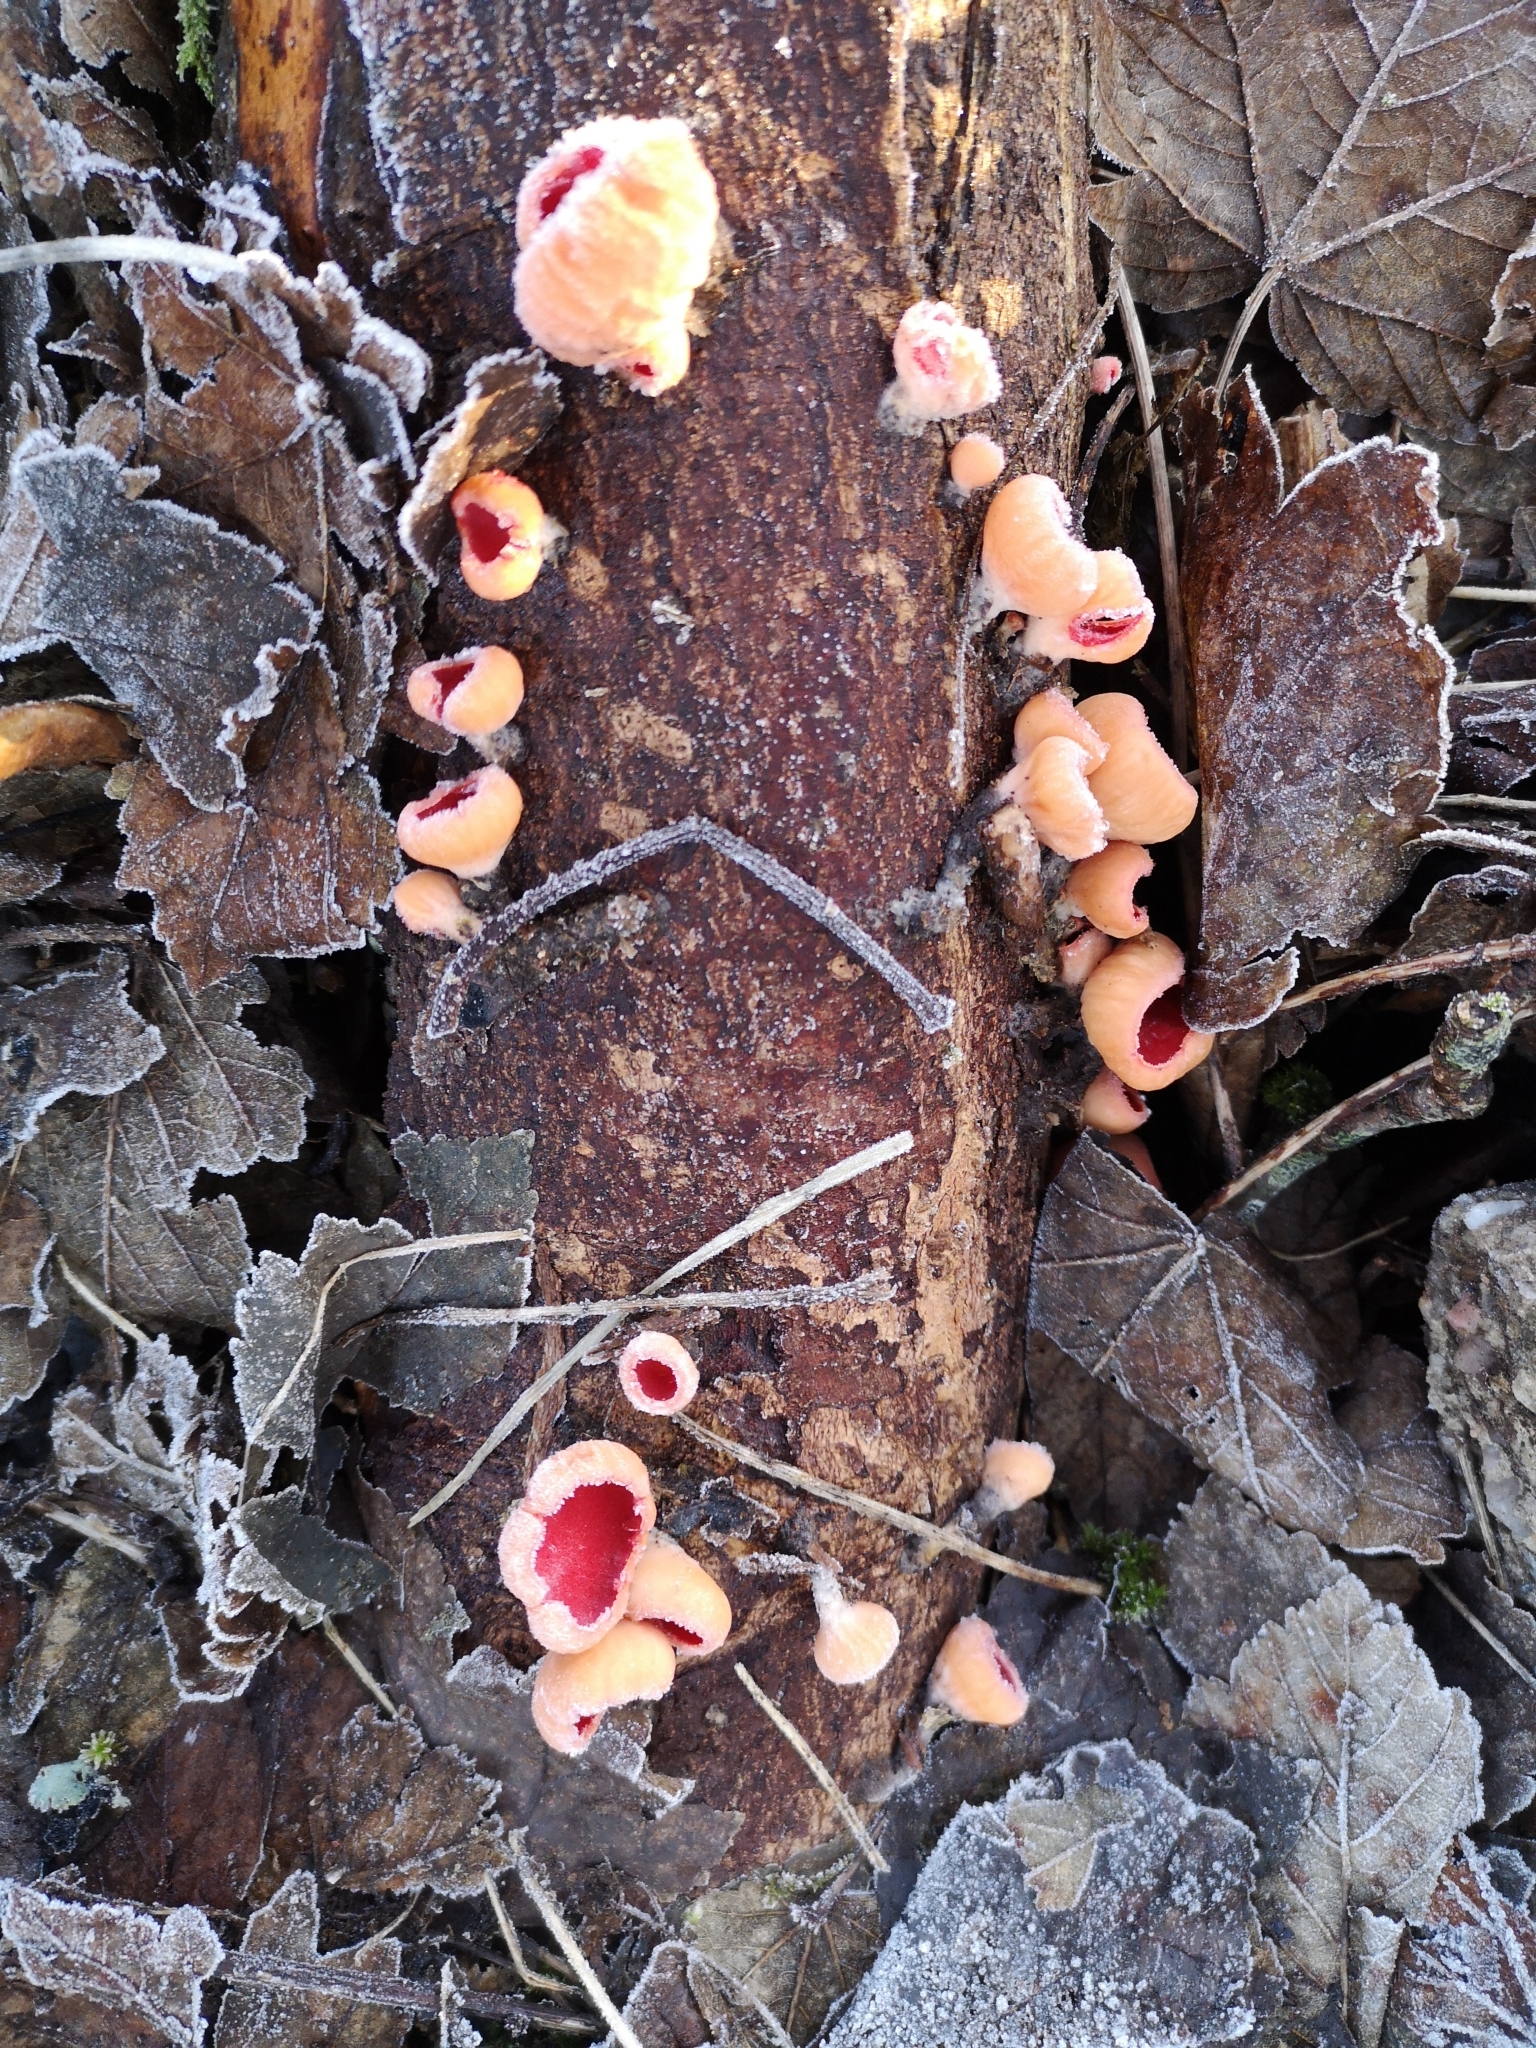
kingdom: Fungi
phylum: Ascomycota
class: Pezizomycetes
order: Pezizales
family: Sarcoscyphaceae
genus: Sarcoscypha
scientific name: Sarcoscypha
